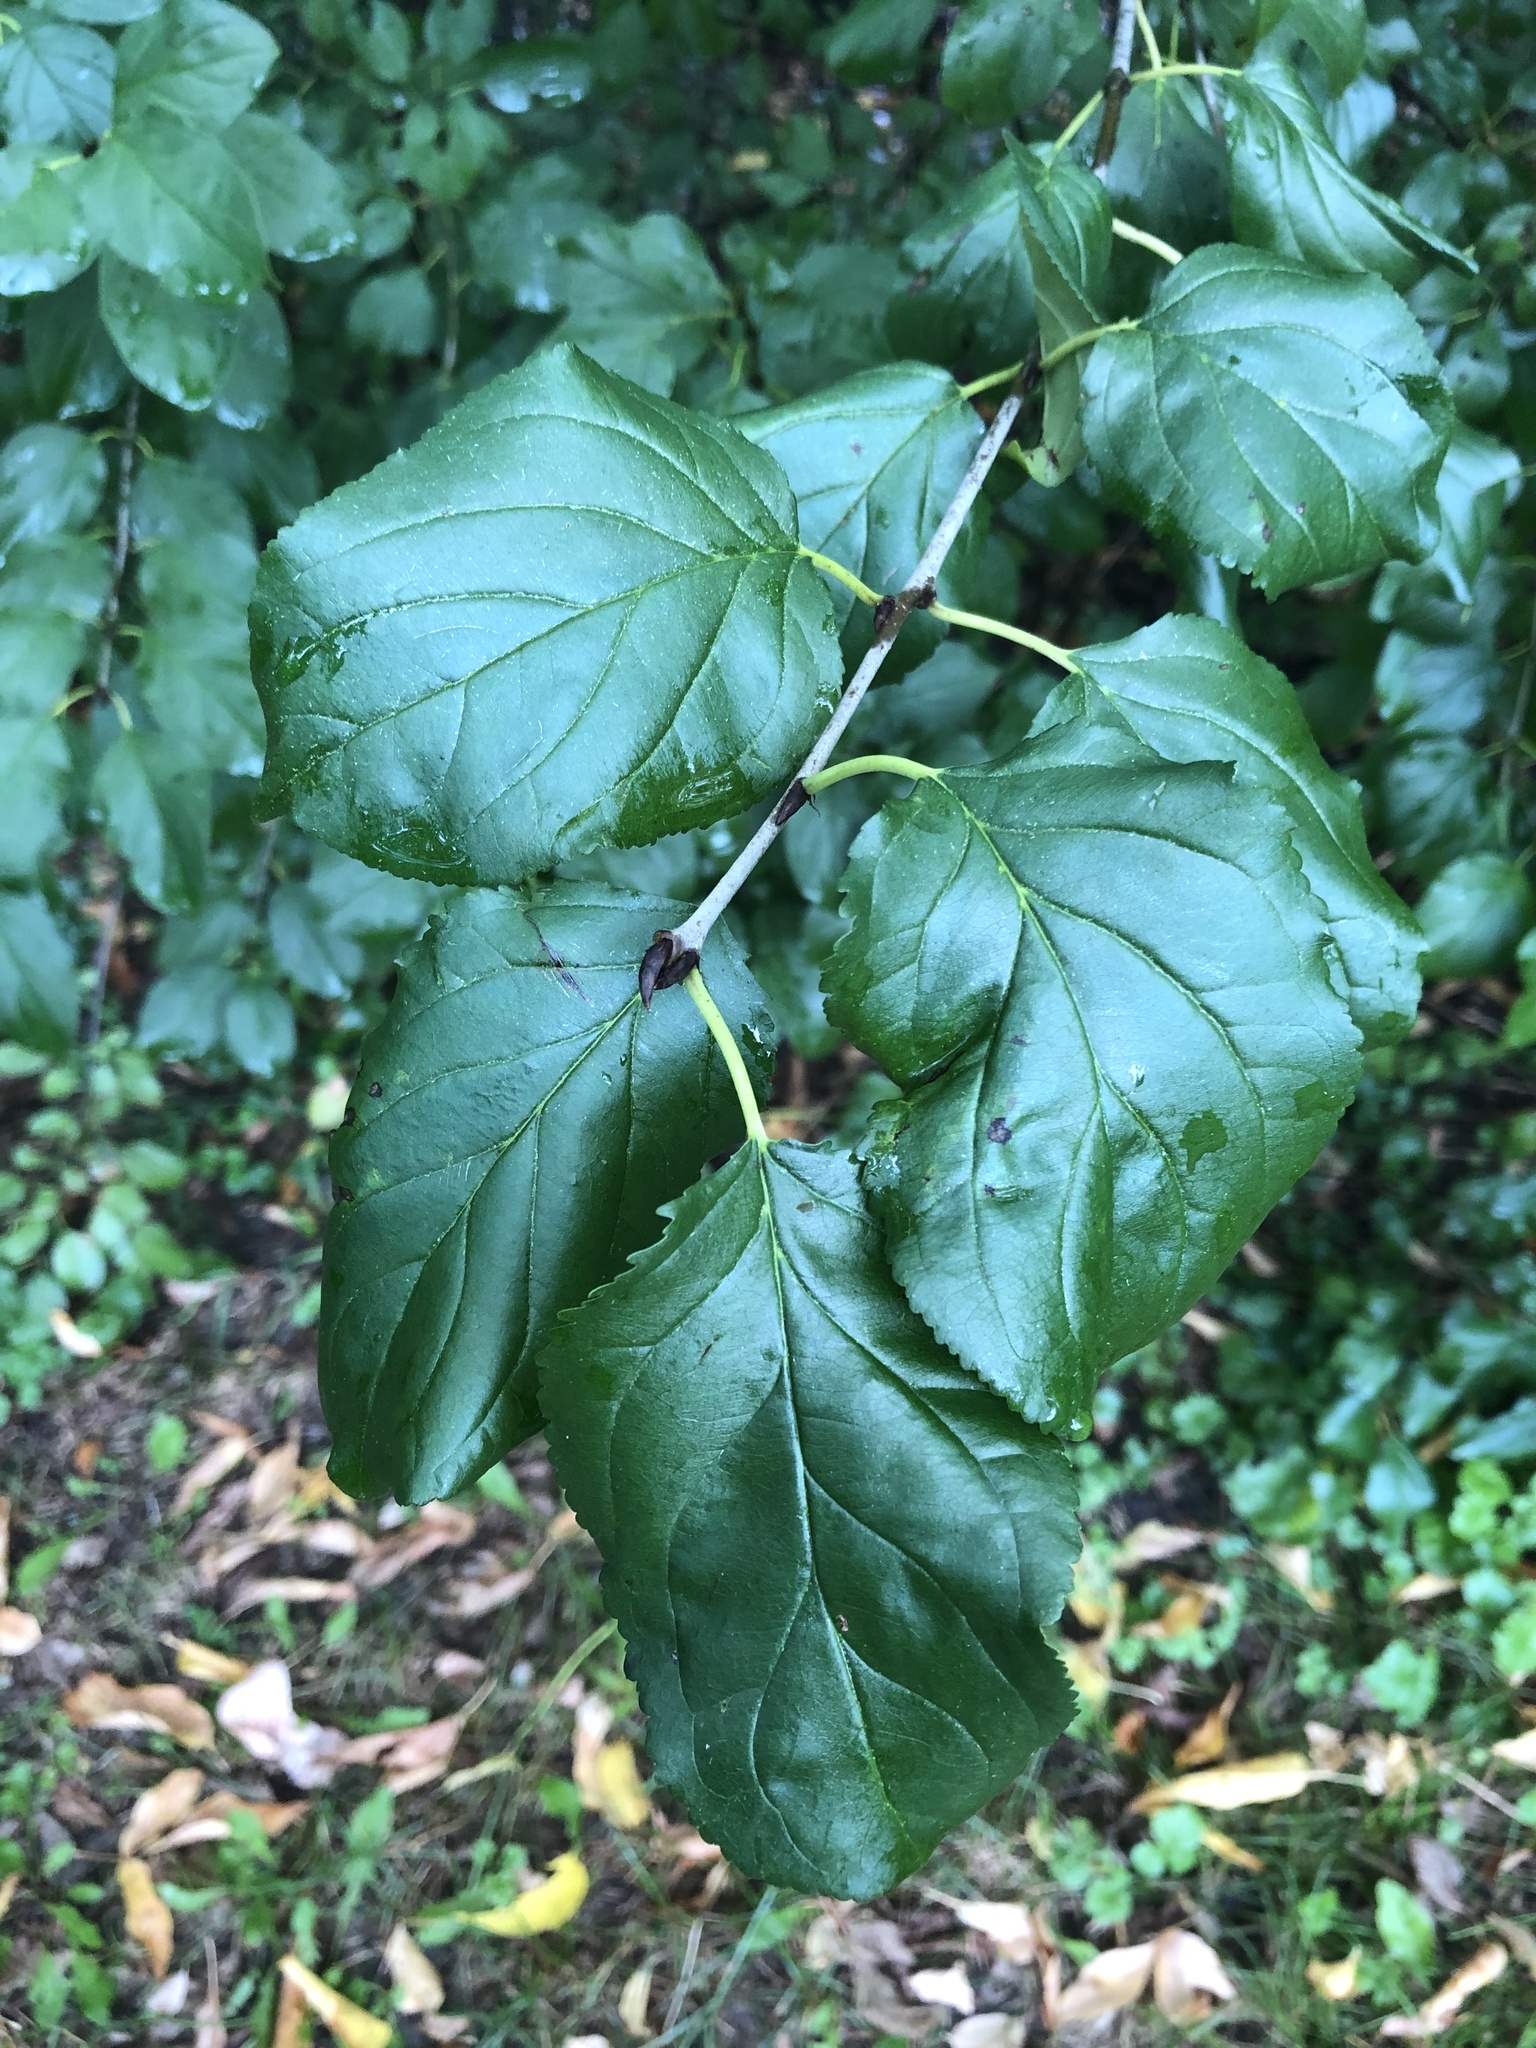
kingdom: Plantae
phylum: Tracheophyta
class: Magnoliopsida
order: Rosales
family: Rhamnaceae
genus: Rhamnus
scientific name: Rhamnus cathartica
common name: Common buckthorn
